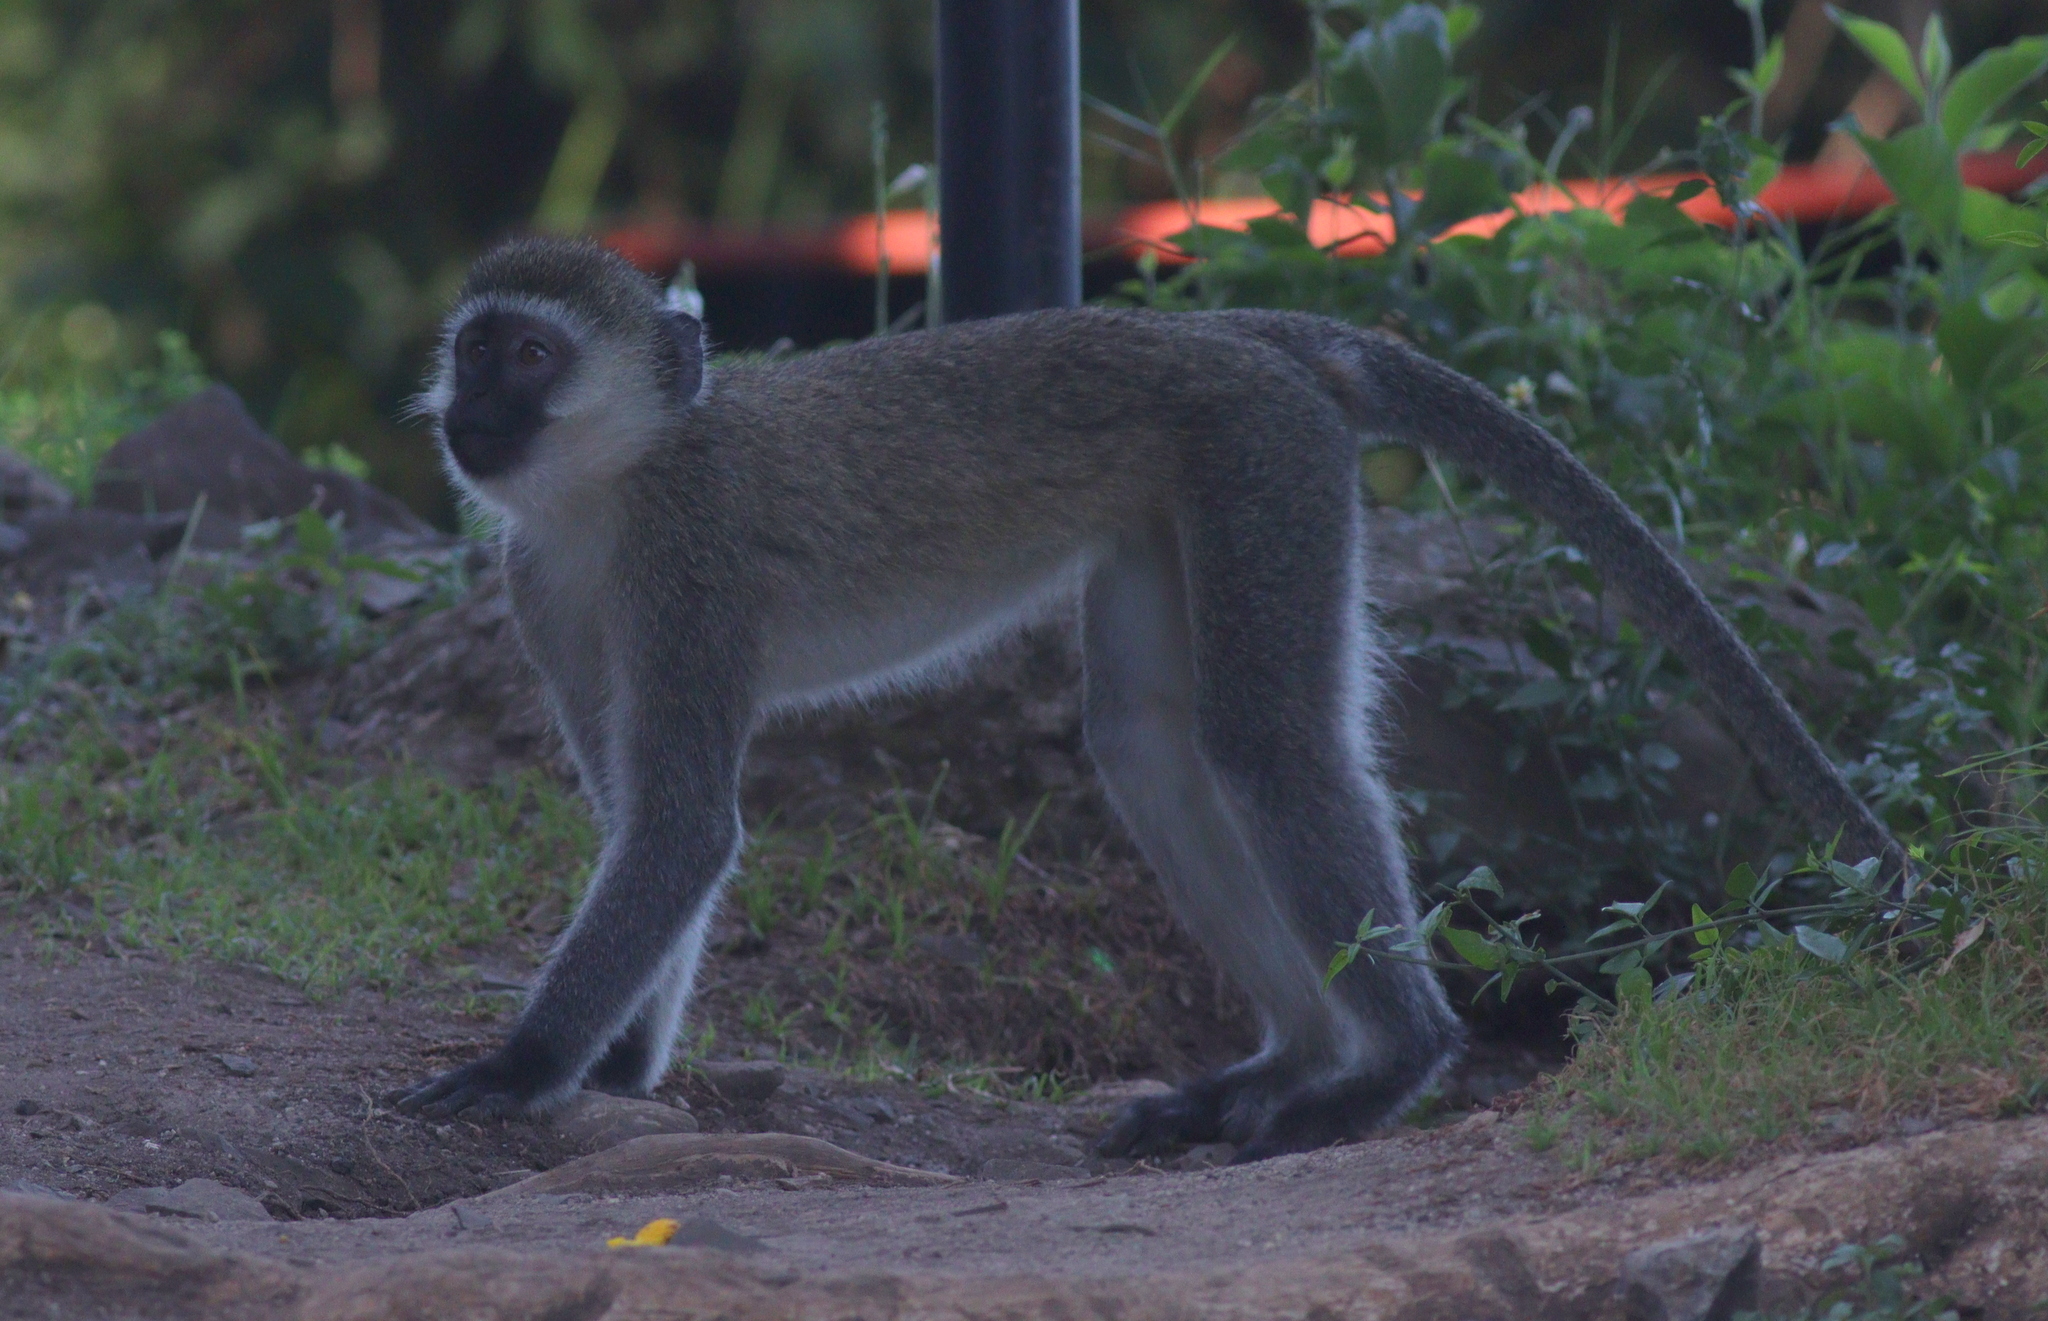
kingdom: Animalia
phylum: Chordata
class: Mammalia
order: Primates
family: Cercopithecidae
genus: Chlorocebus
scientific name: Chlorocebus pygerythrus
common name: Vervet monkey
